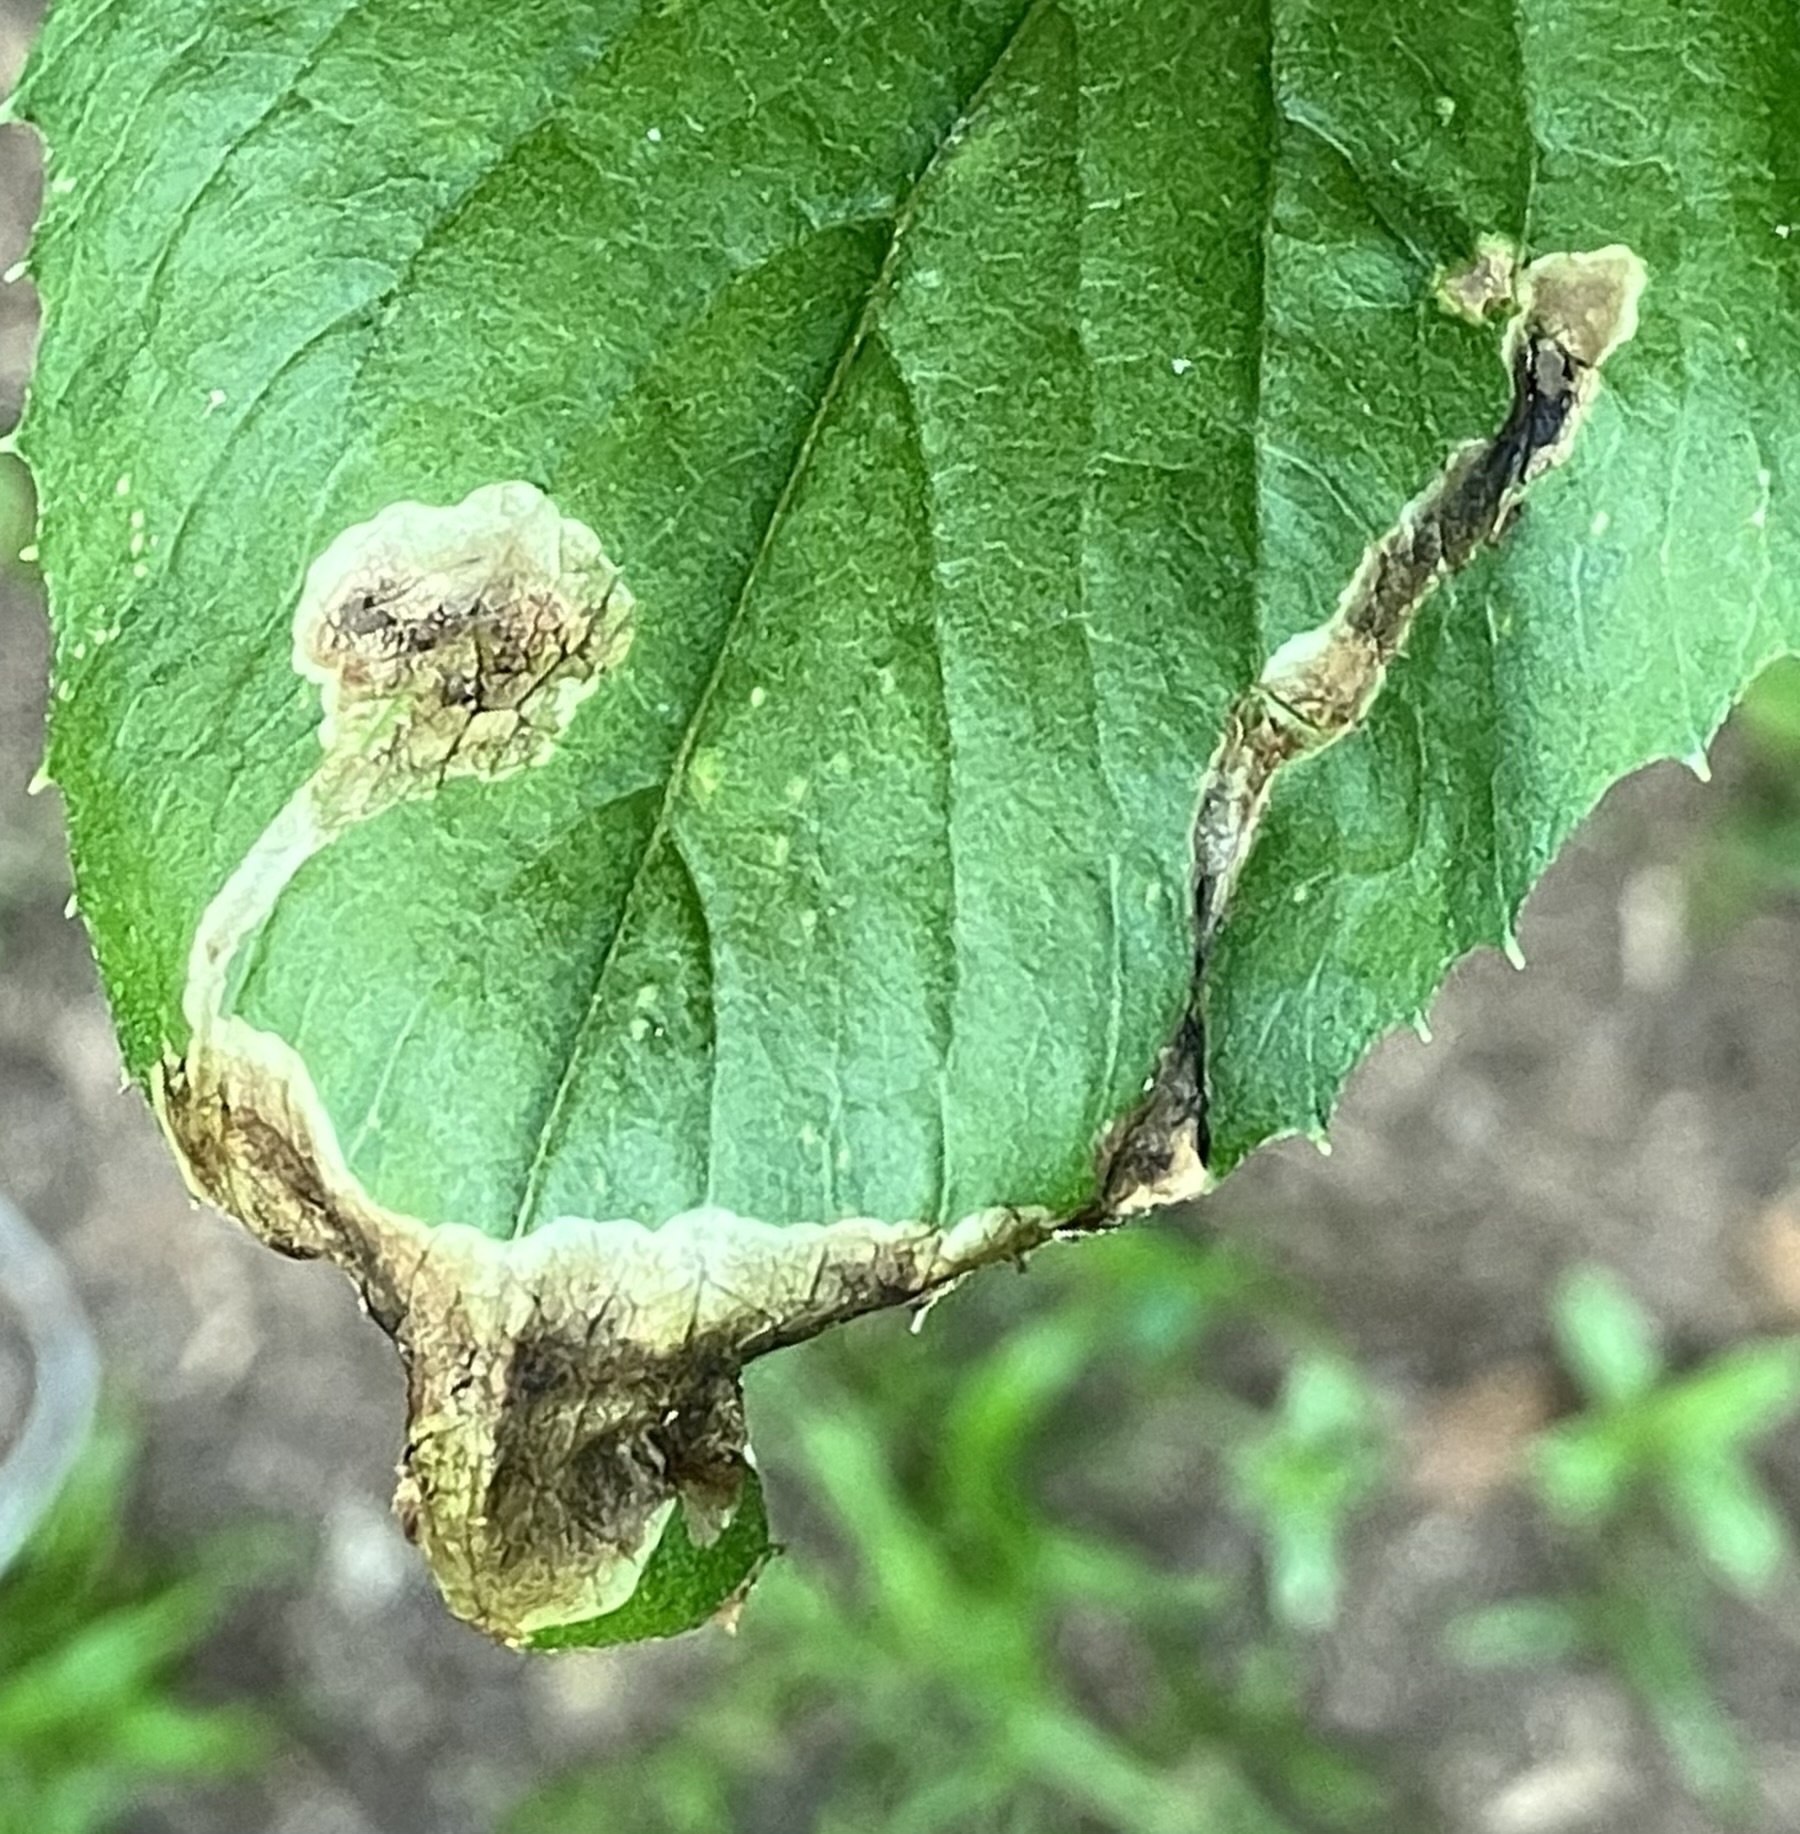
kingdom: Animalia
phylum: Arthropoda
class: Insecta
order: Diptera
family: Agromyzidae
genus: Nemorimyza
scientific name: Nemorimyza maculosa
